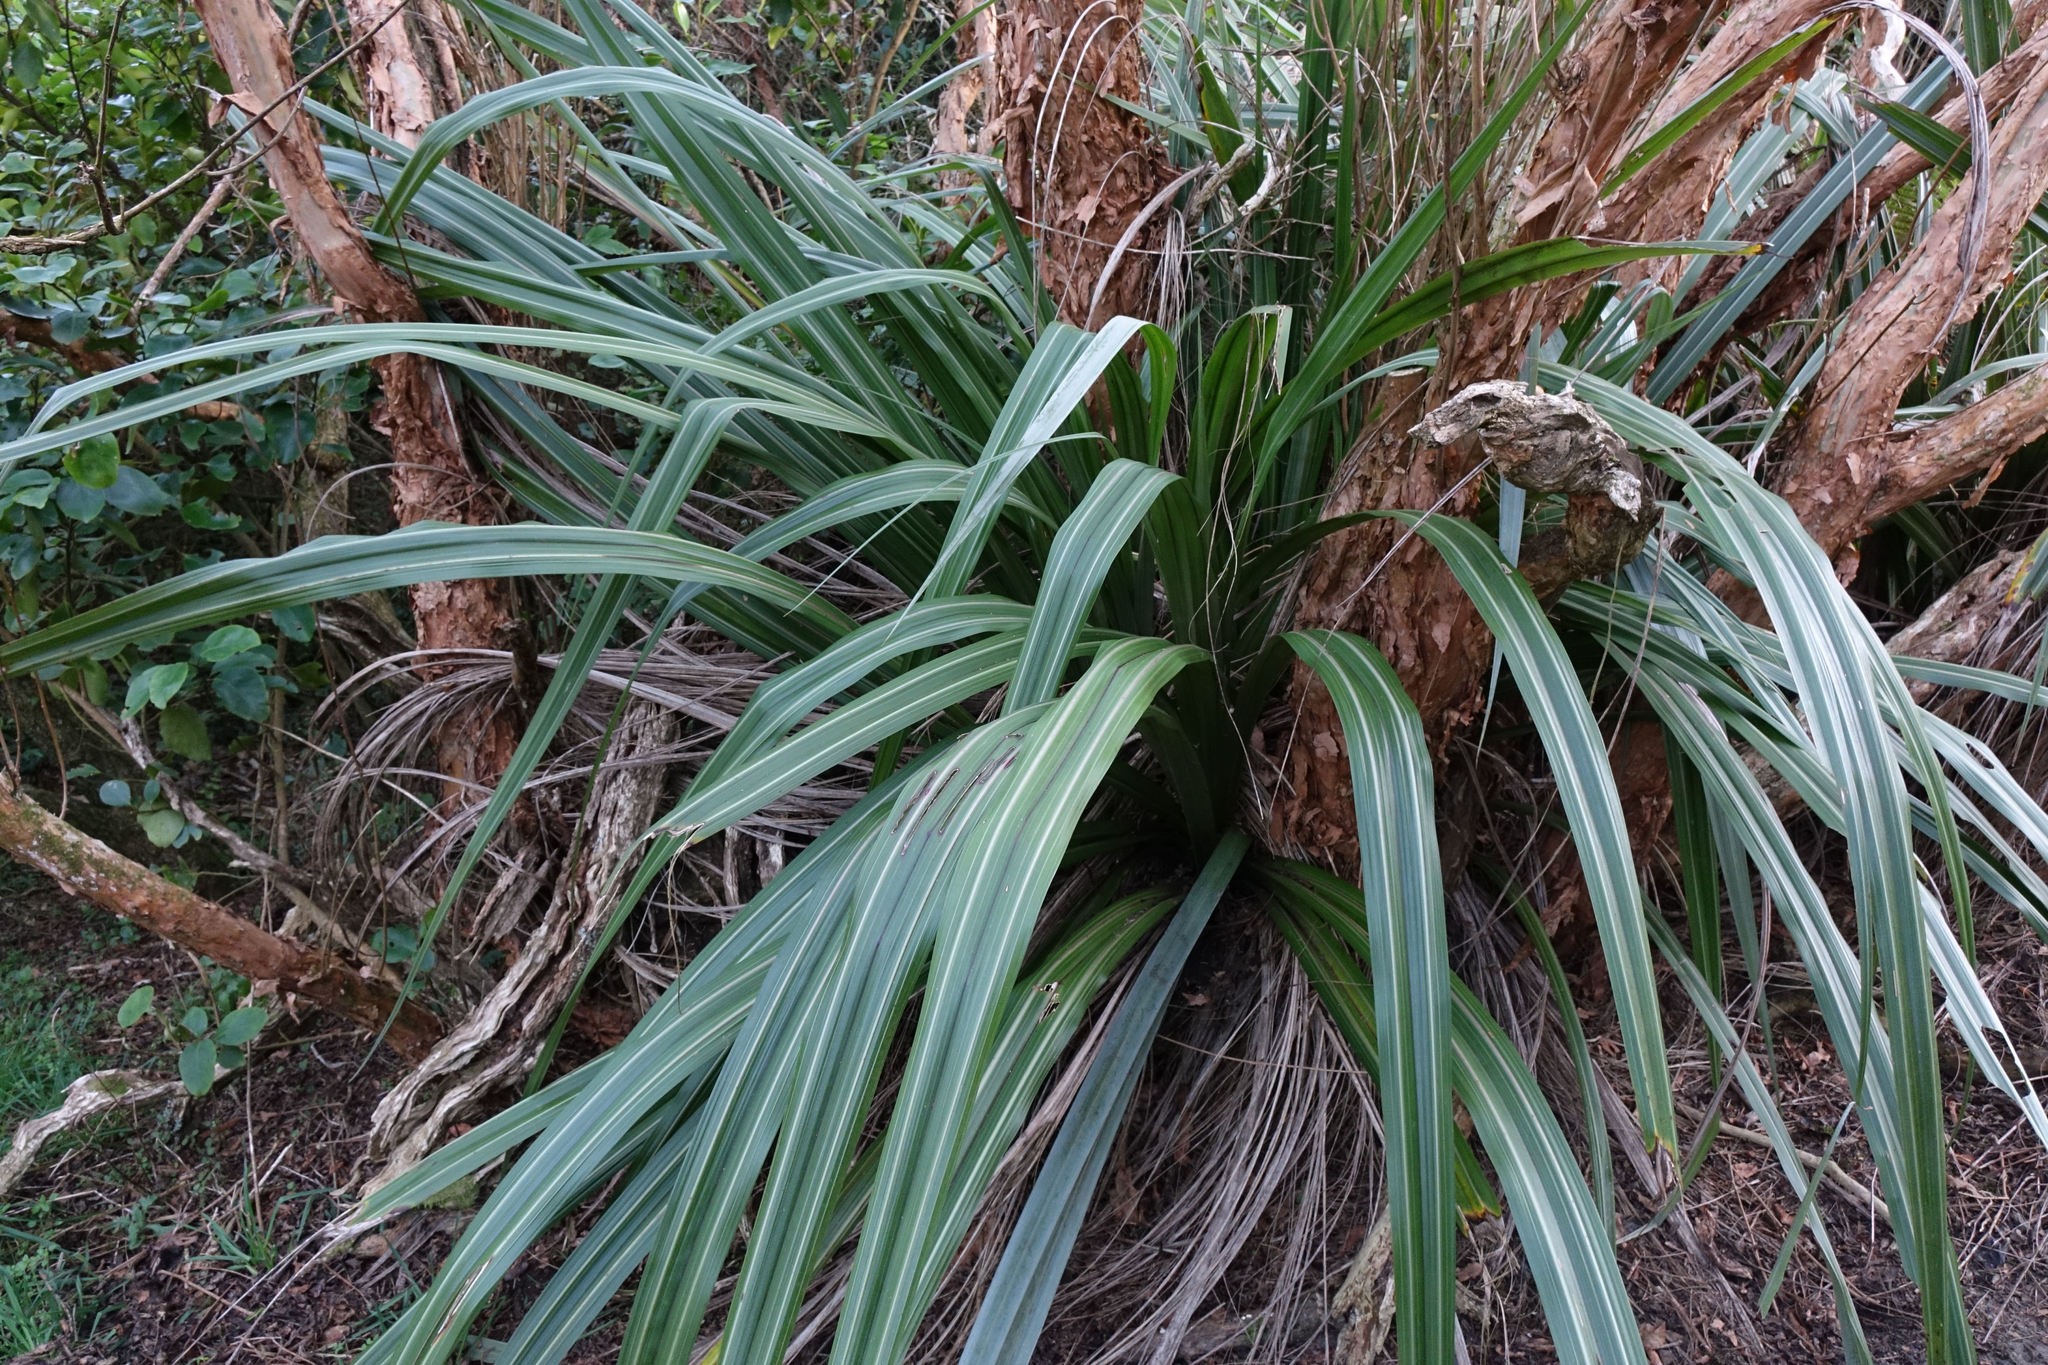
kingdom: Plantae
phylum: Tracheophyta
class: Liliopsida
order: Asparagales
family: Asteliaceae
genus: Astelia
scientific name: Astelia fragrans
